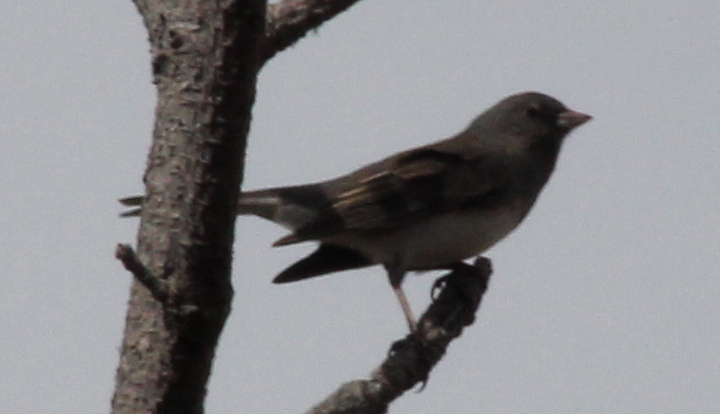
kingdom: Animalia
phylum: Chordata
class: Aves
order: Passeriformes
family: Passerellidae
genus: Junco
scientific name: Junco hyemalis
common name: Dark-eyed junco
